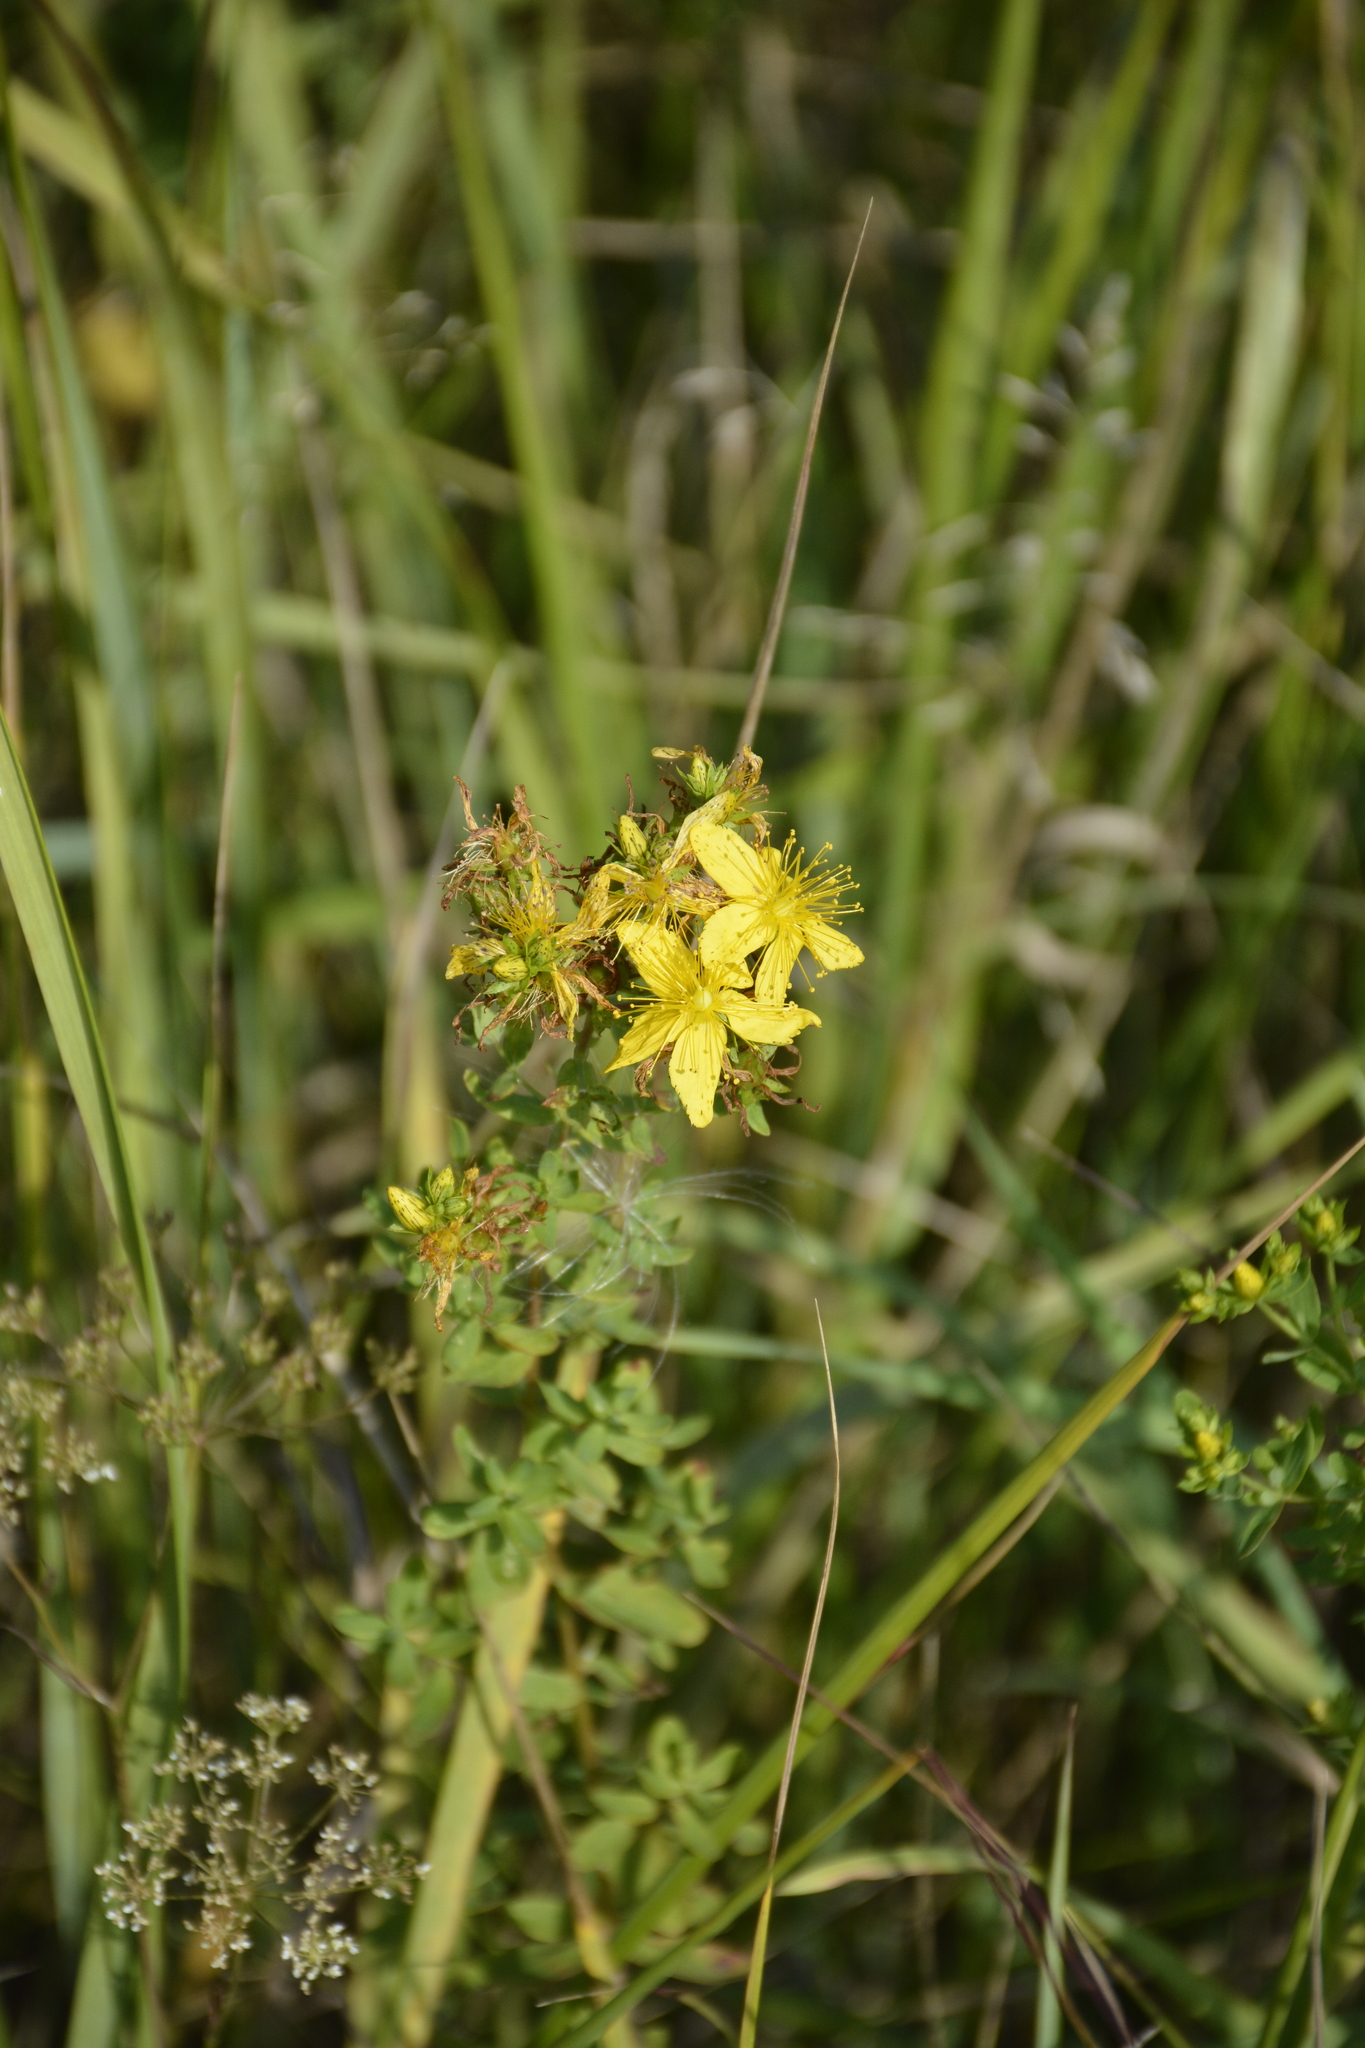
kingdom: Plantae
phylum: Tracheophyta
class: Magnoliopsida
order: Malpighiales
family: Hypericaceae
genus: Hypericum
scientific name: Hypericum perforatum
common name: Common st. johnswort
